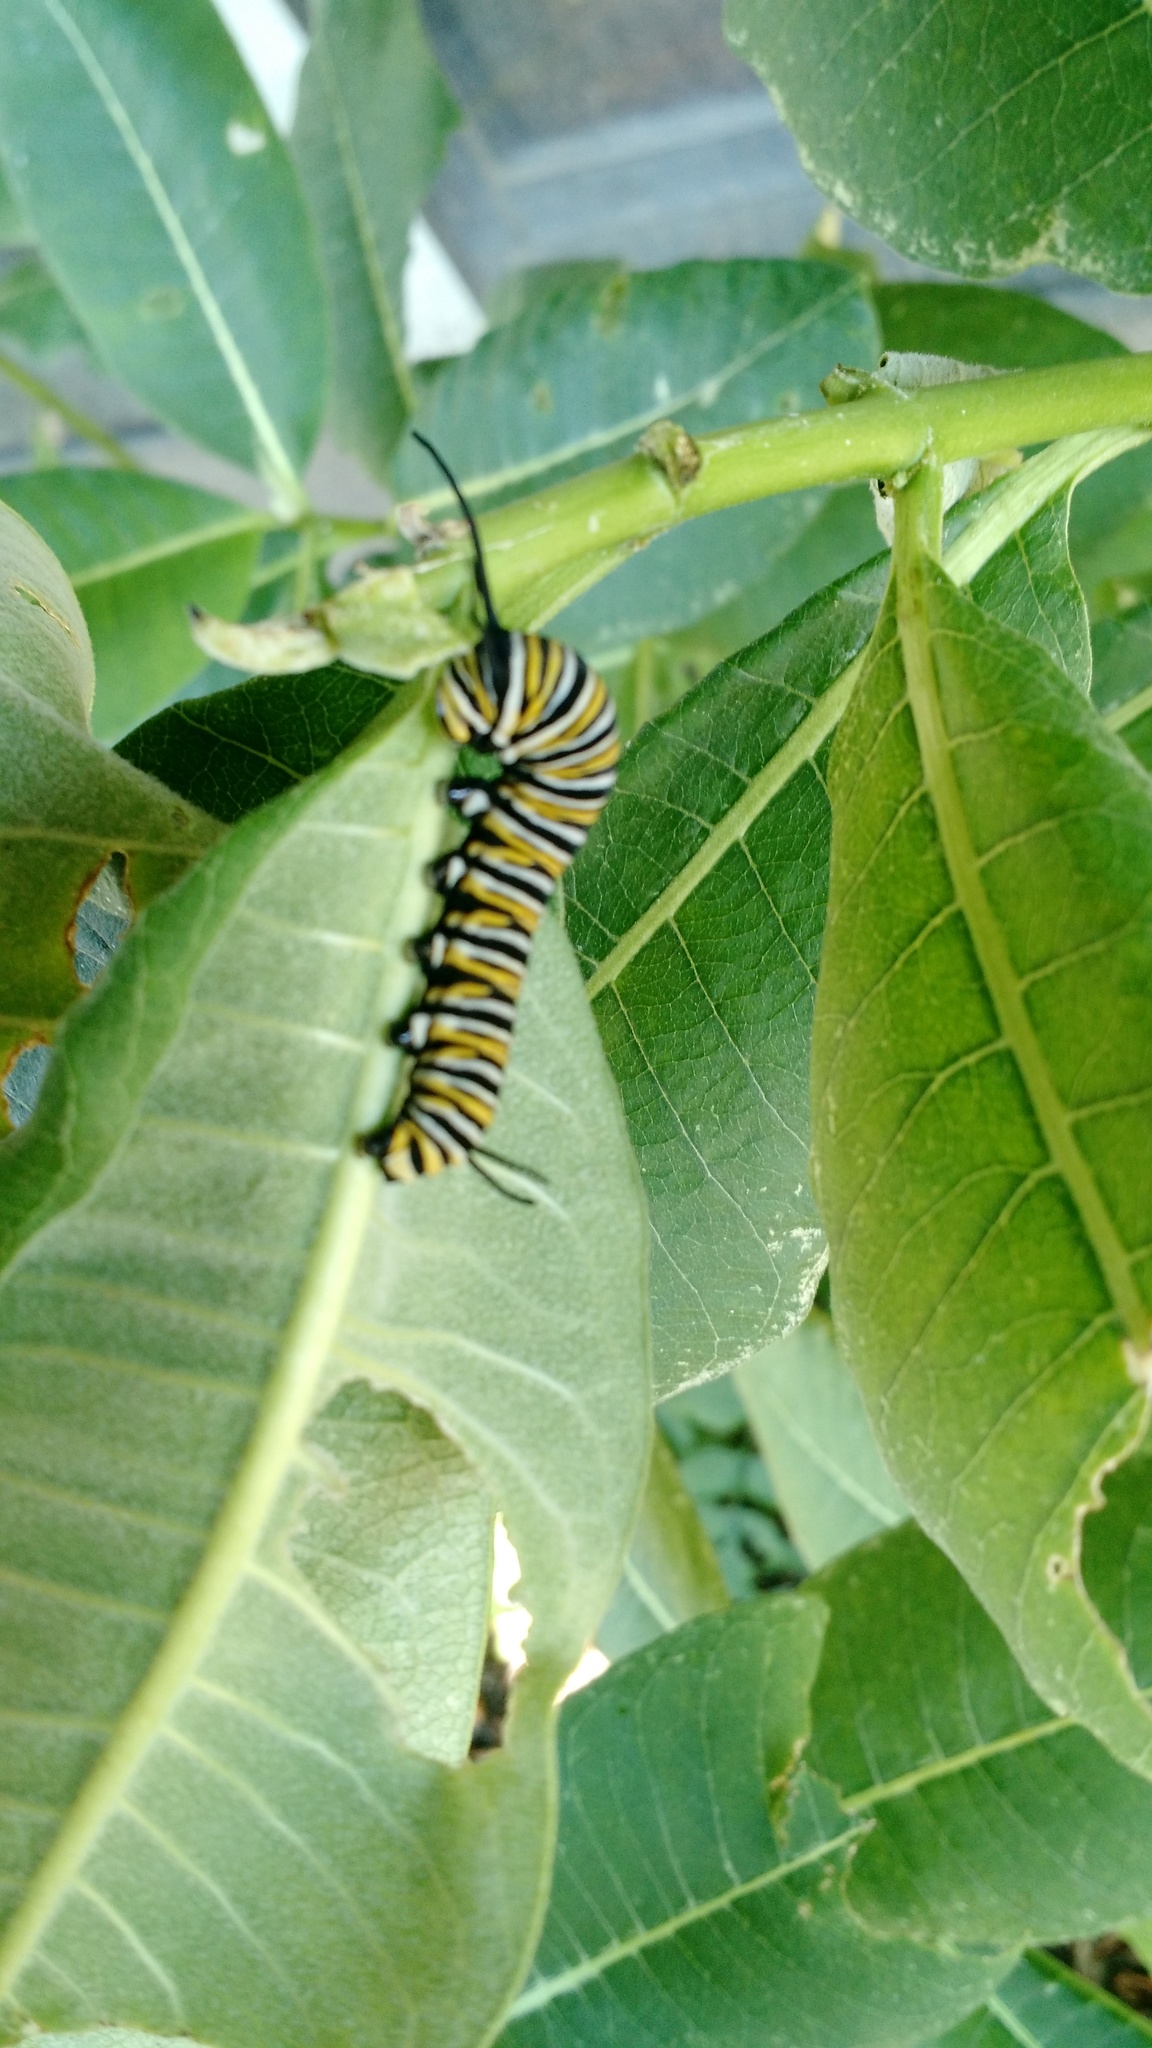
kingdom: Animalia
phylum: Arthropoda
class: Insecta
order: Lepidoptera
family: Nymphalidae
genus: Danaus
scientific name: Danaus plexippus
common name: Monarch
